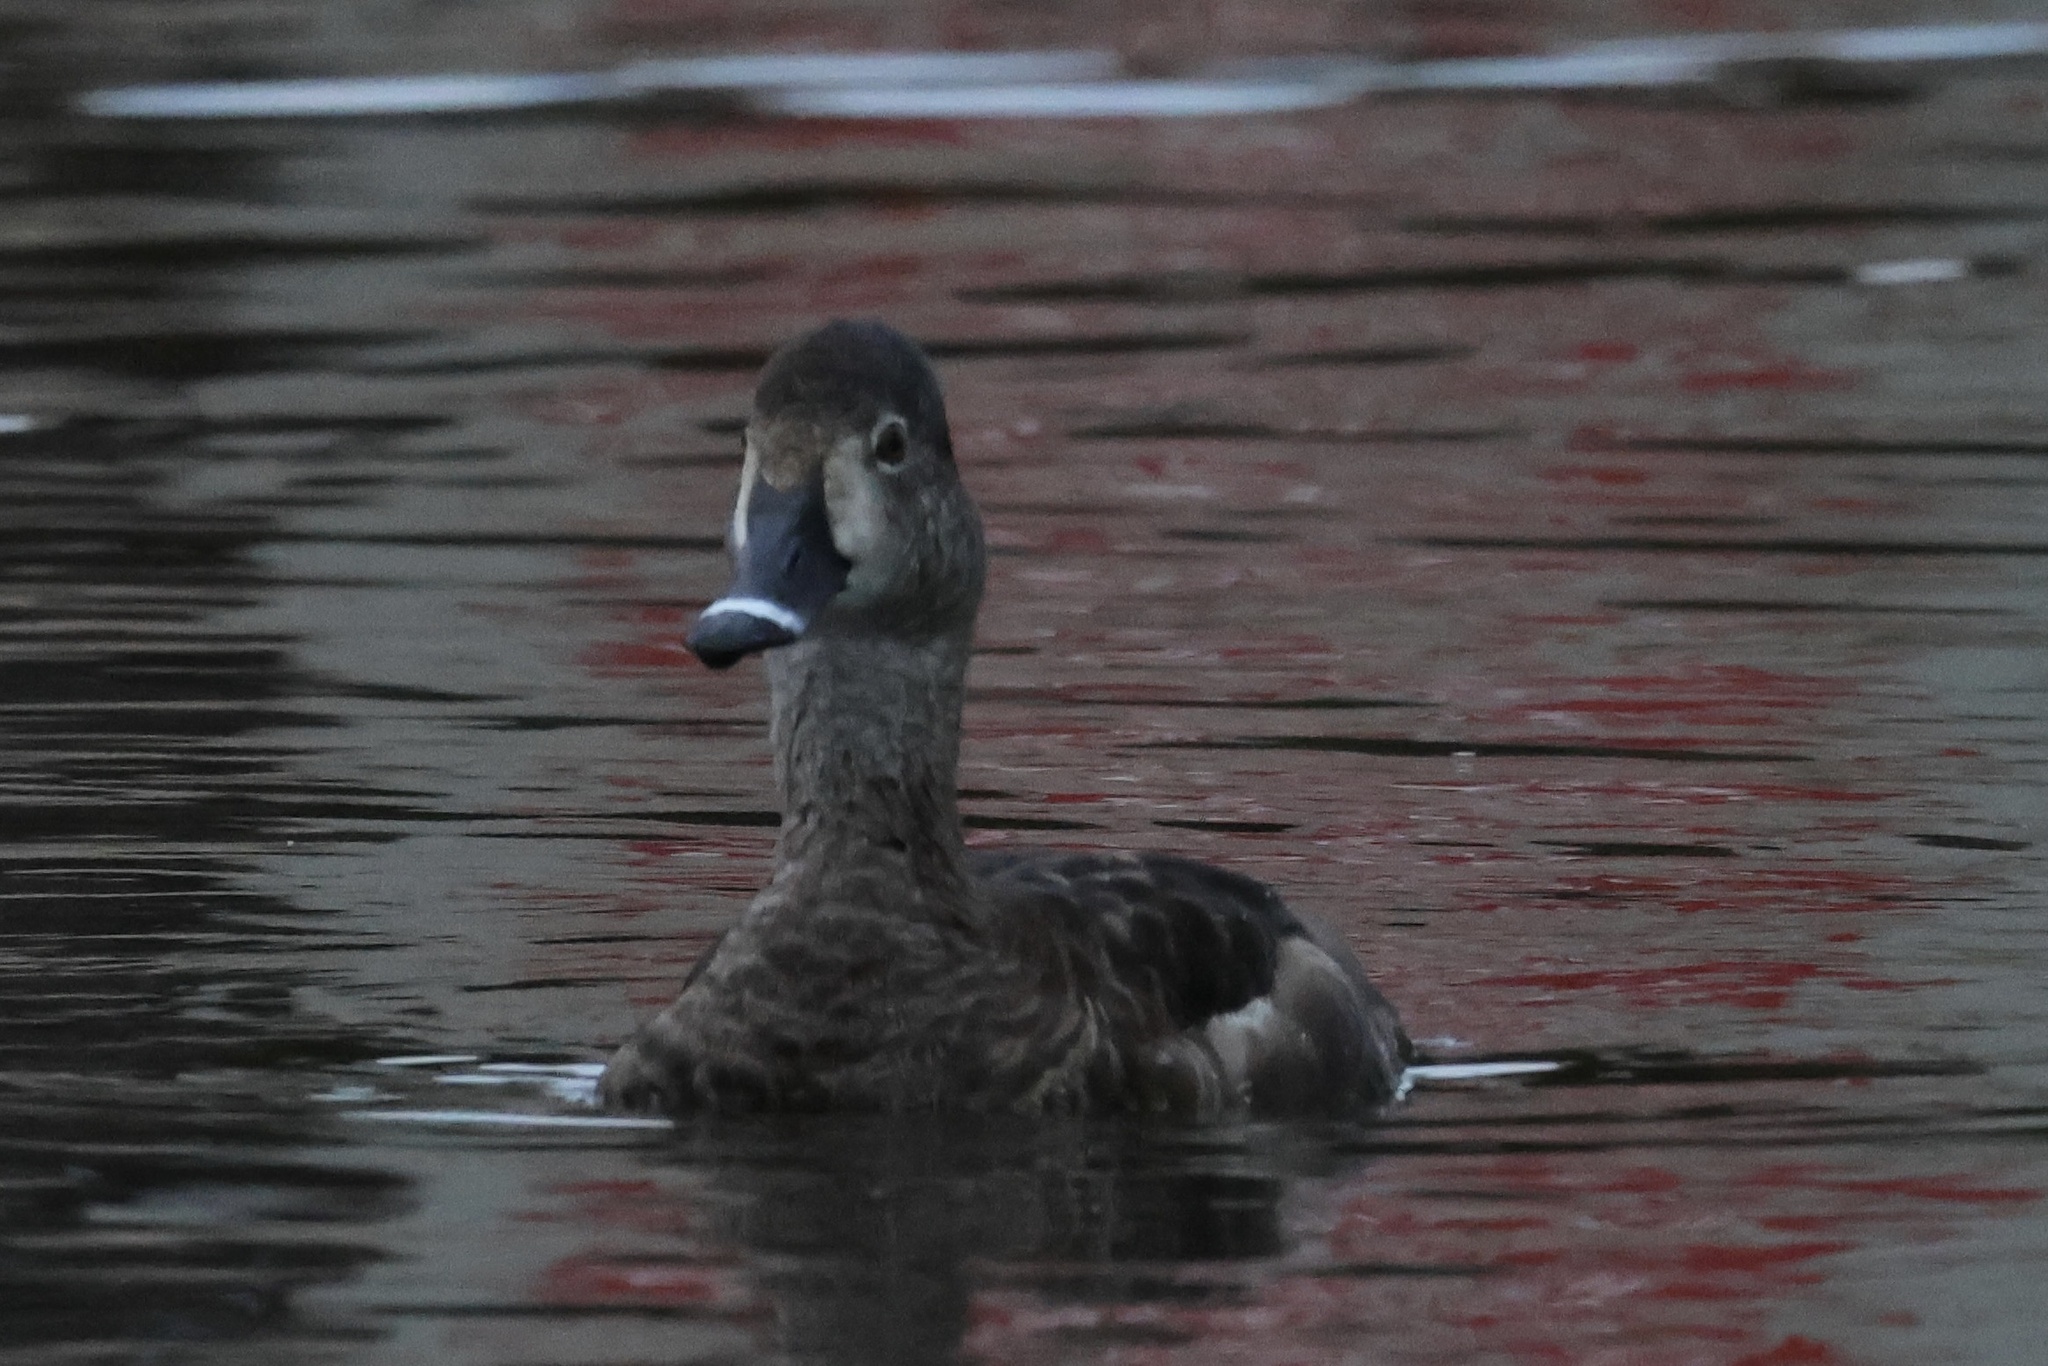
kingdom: Animalia
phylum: Chordata
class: Aves
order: Anseriformes
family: Anatidae
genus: Aythya
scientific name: Aythya collaris
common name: Ring-necked duck
